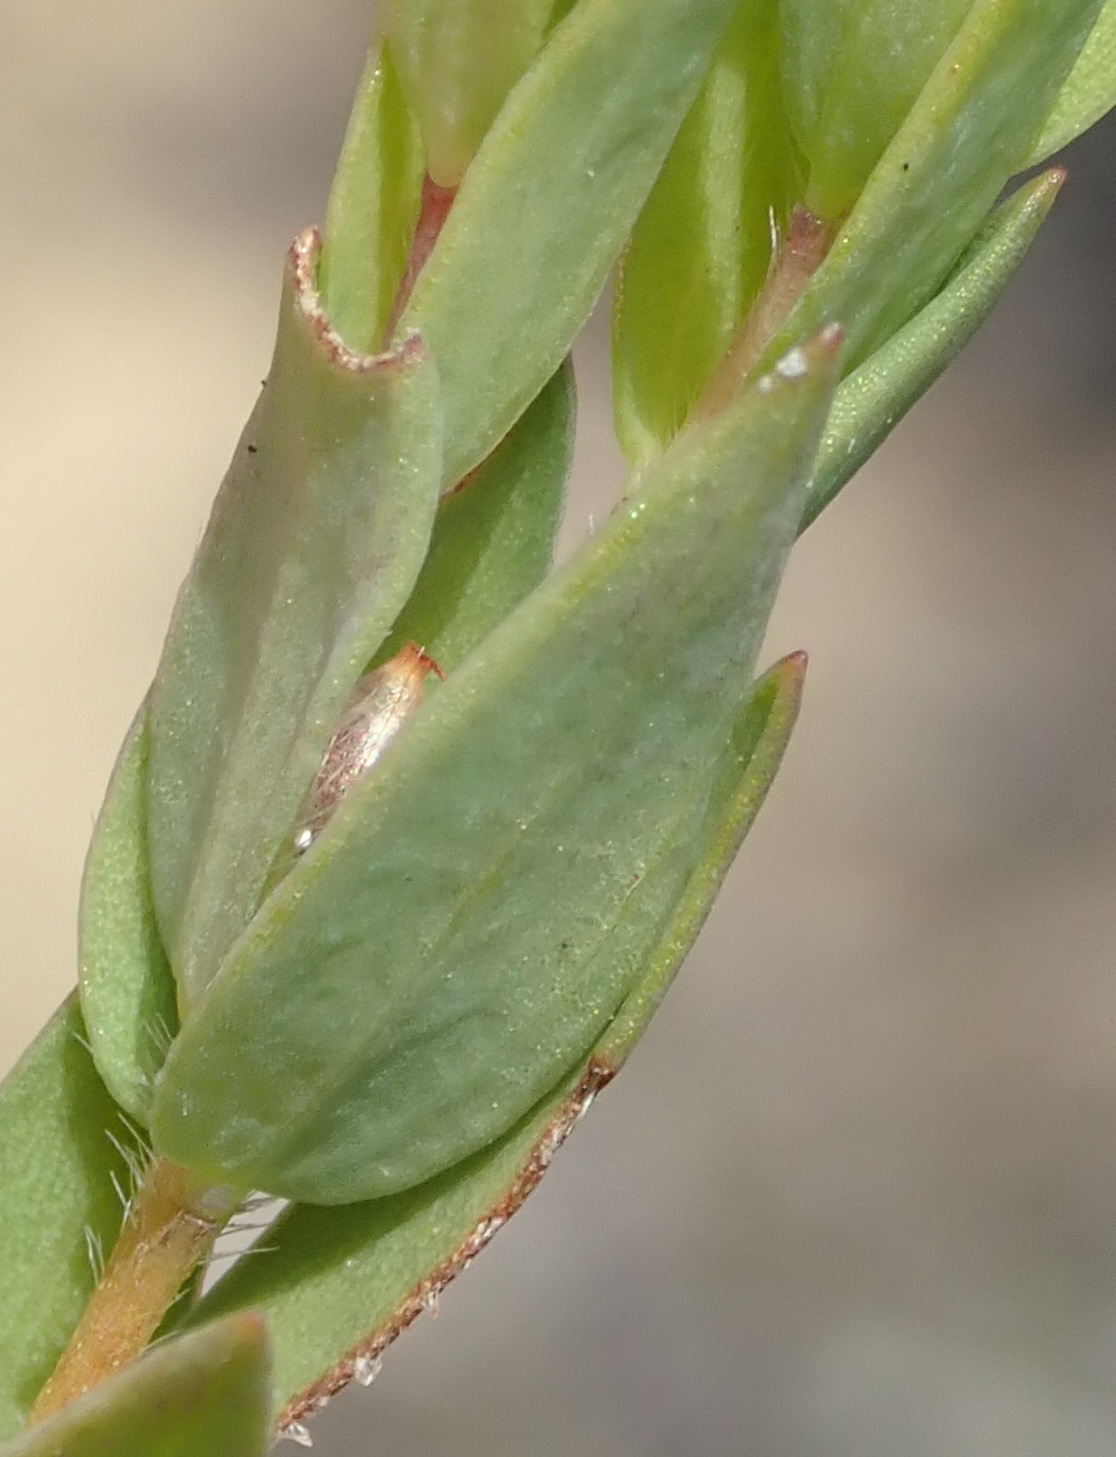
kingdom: Plantae
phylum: Tracheophyta
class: Magnoliopsida
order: Malvales
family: Thymelaeaceae
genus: Gnidia
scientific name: Gnidia juniperifolia
